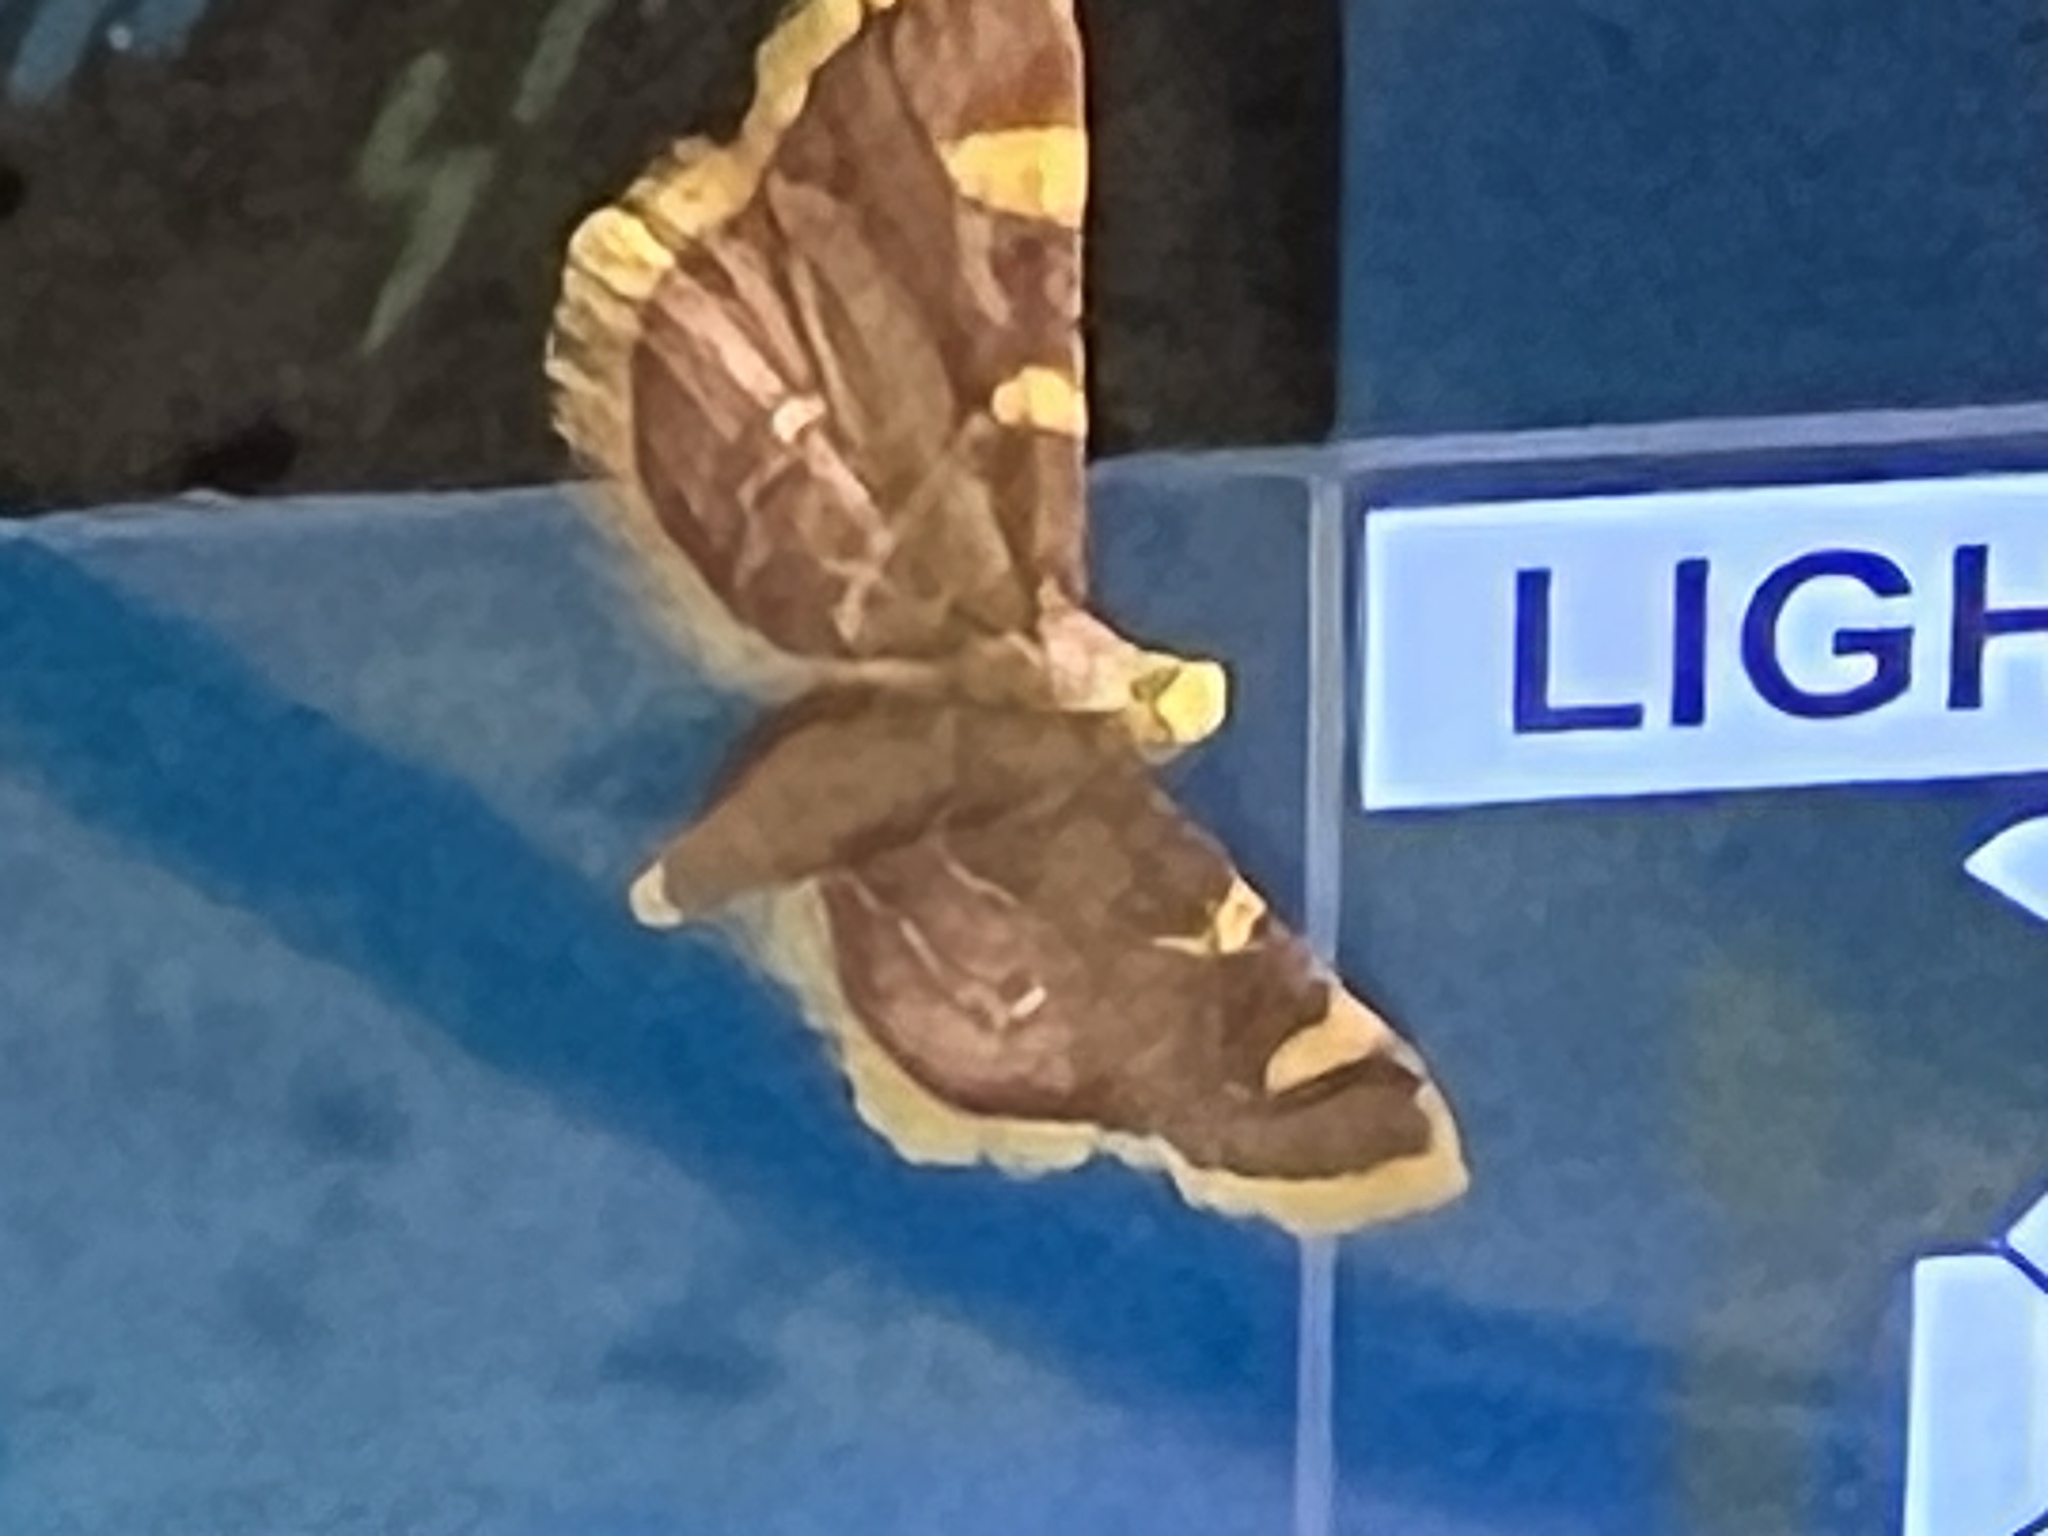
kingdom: Animalia
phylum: Arthropoda
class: Insecta
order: Lepidoptera
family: Pyralidae
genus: Hypsopygia
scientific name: Hypsopygia costalis
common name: Gold triangle
